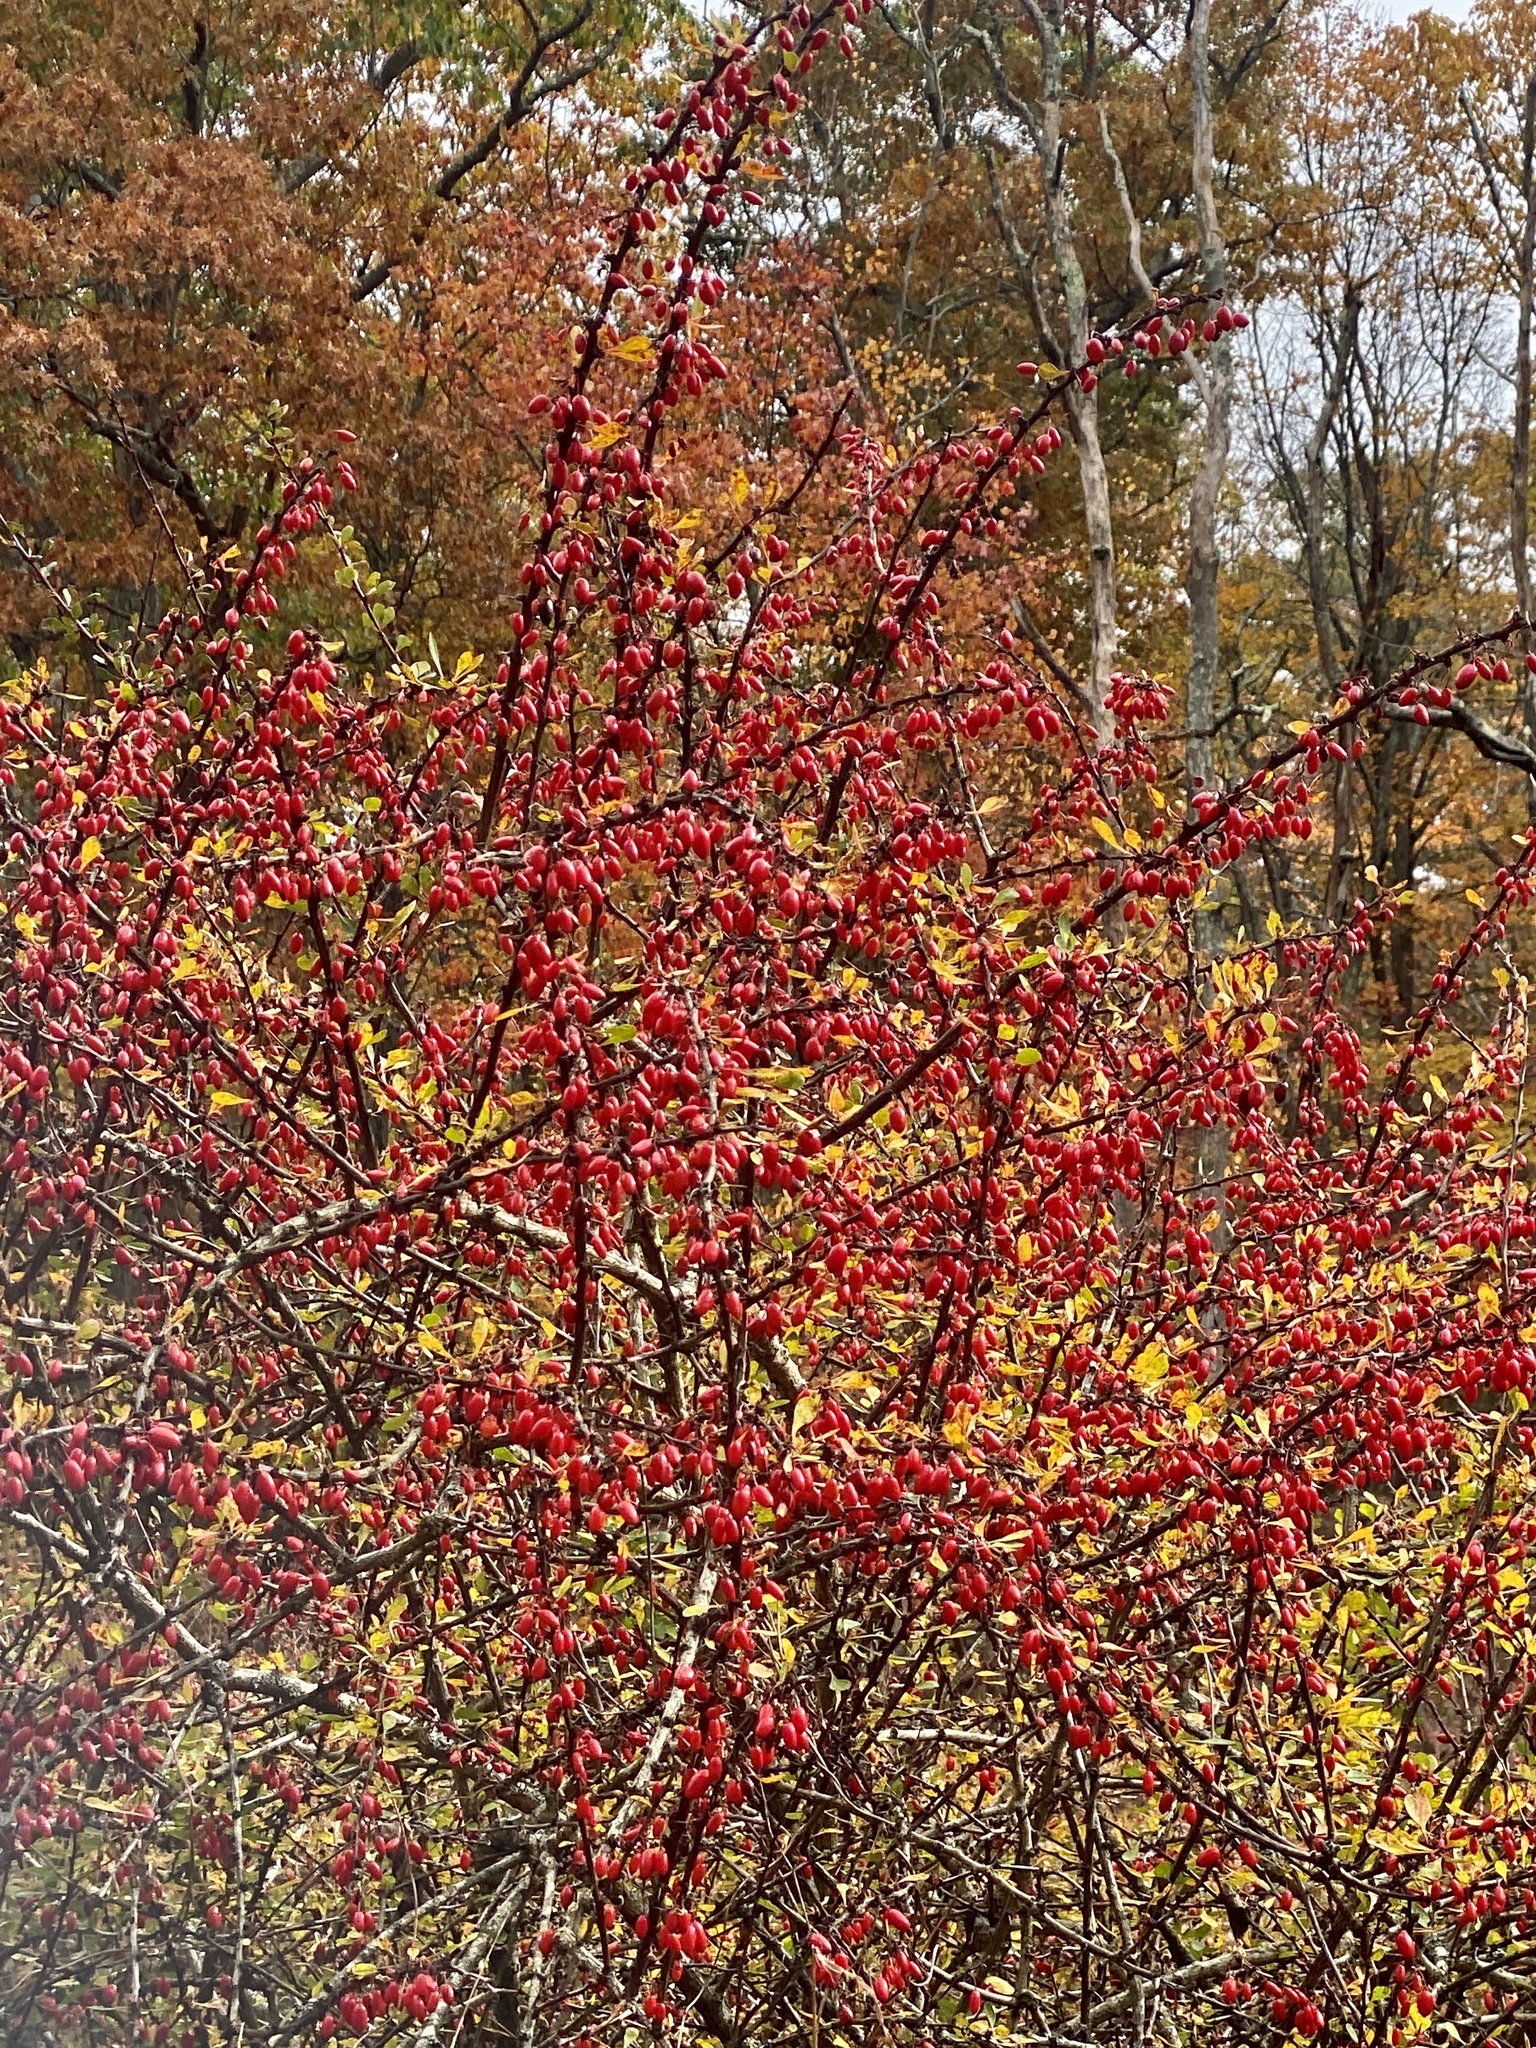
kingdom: Plantae
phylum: Tracheophyta
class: Magnoliopsida
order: Ranunculales
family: Berberidaceae
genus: Berberis
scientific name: Berberis thunbergii
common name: Japanese barberry
